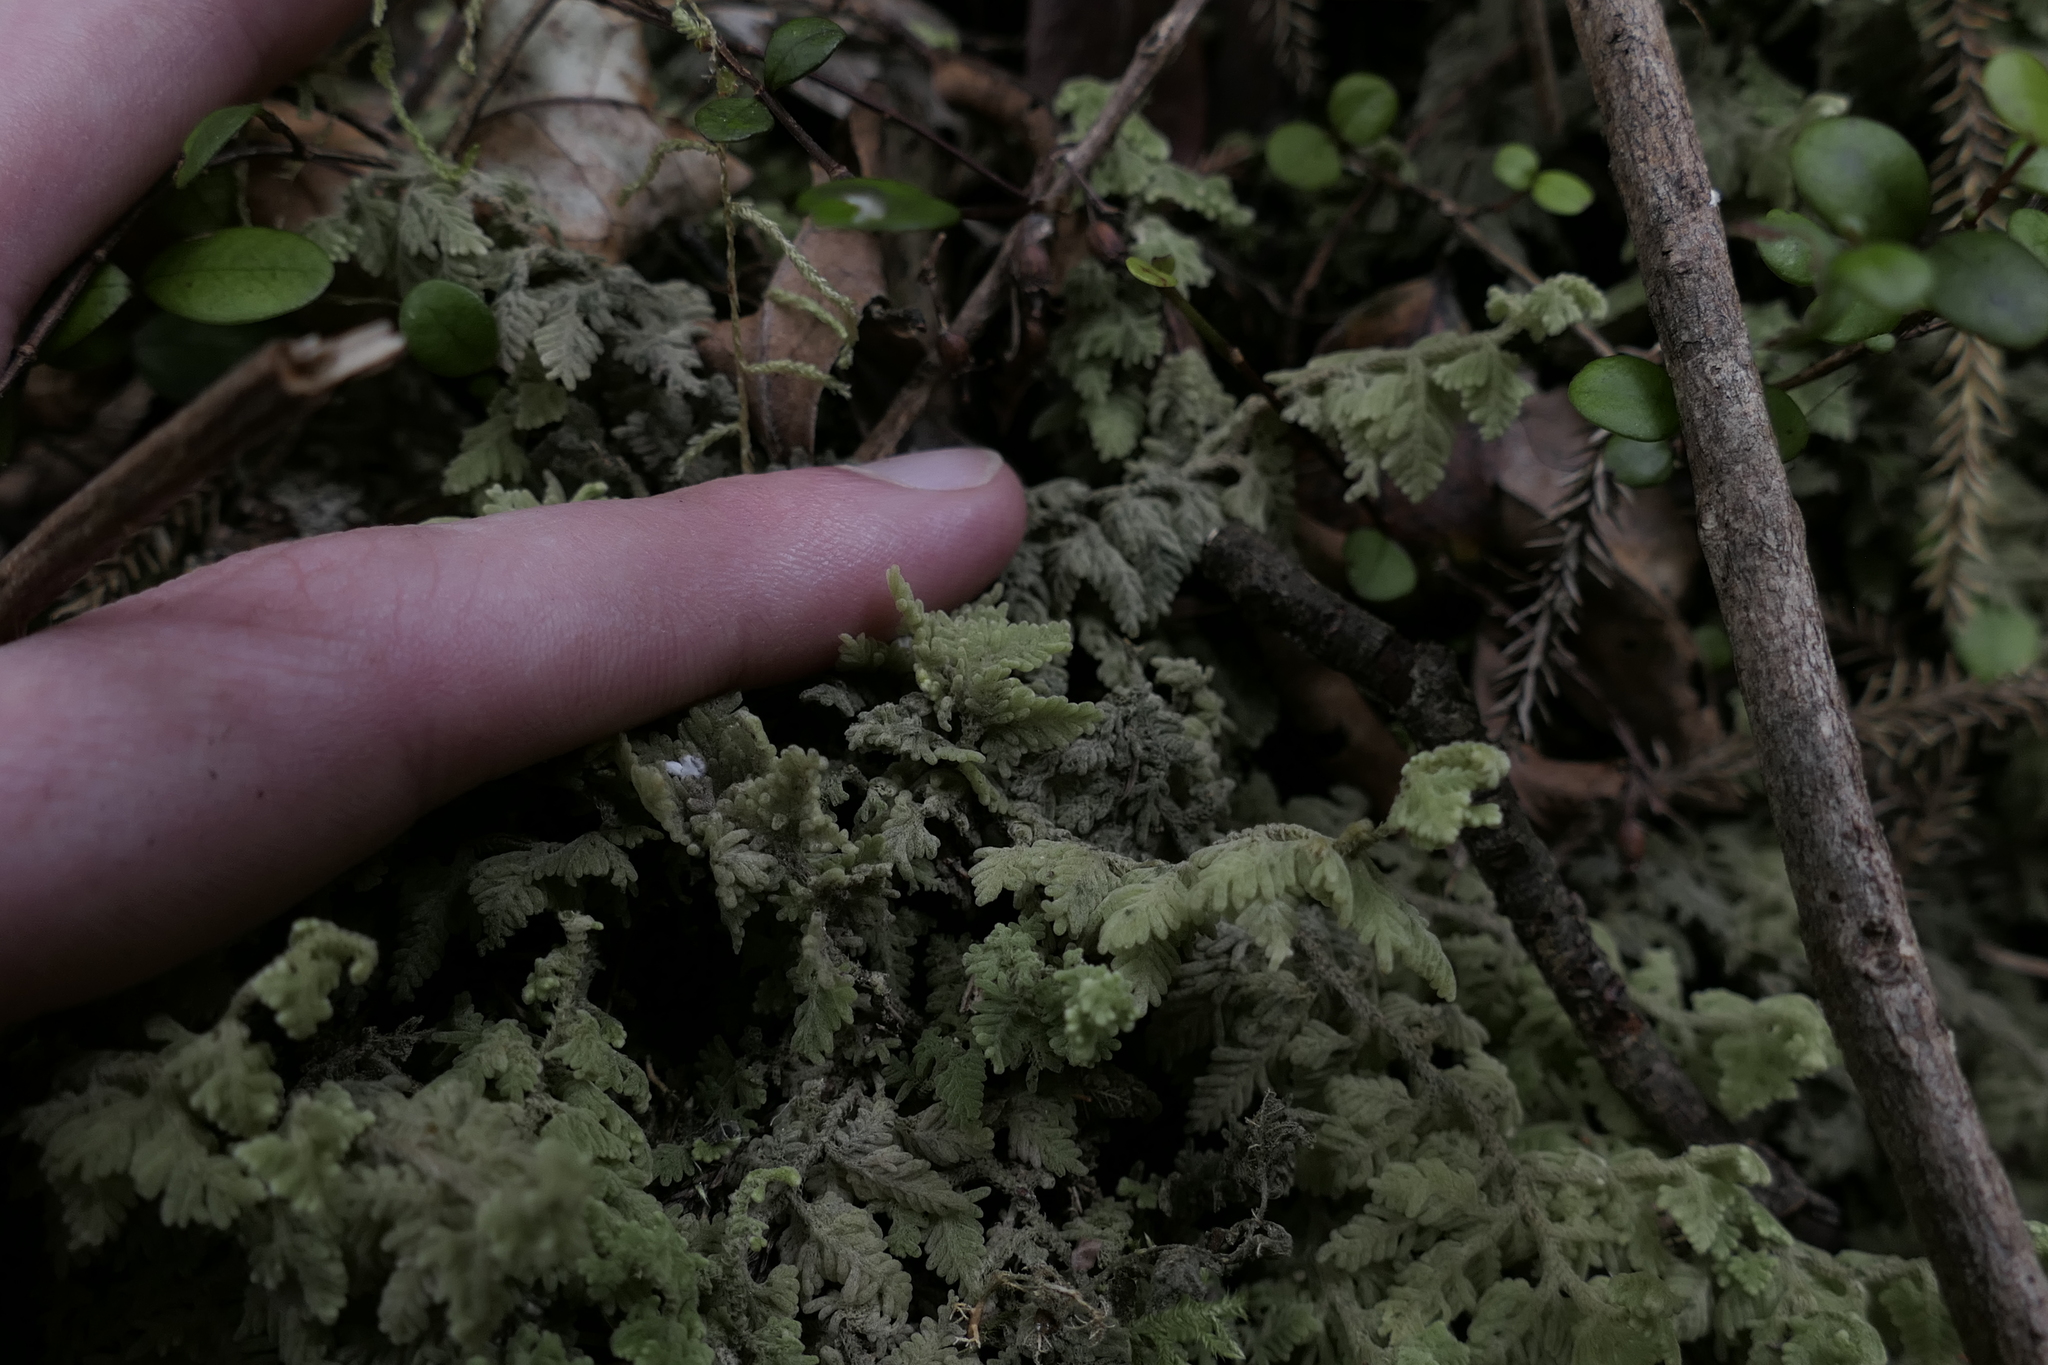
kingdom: Plantae
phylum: Marchantiophyta
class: Jungermanniopsida
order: Jungermanniales
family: Trichocoleaceae
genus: Trichocolea
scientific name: Trichocolea mollissima
